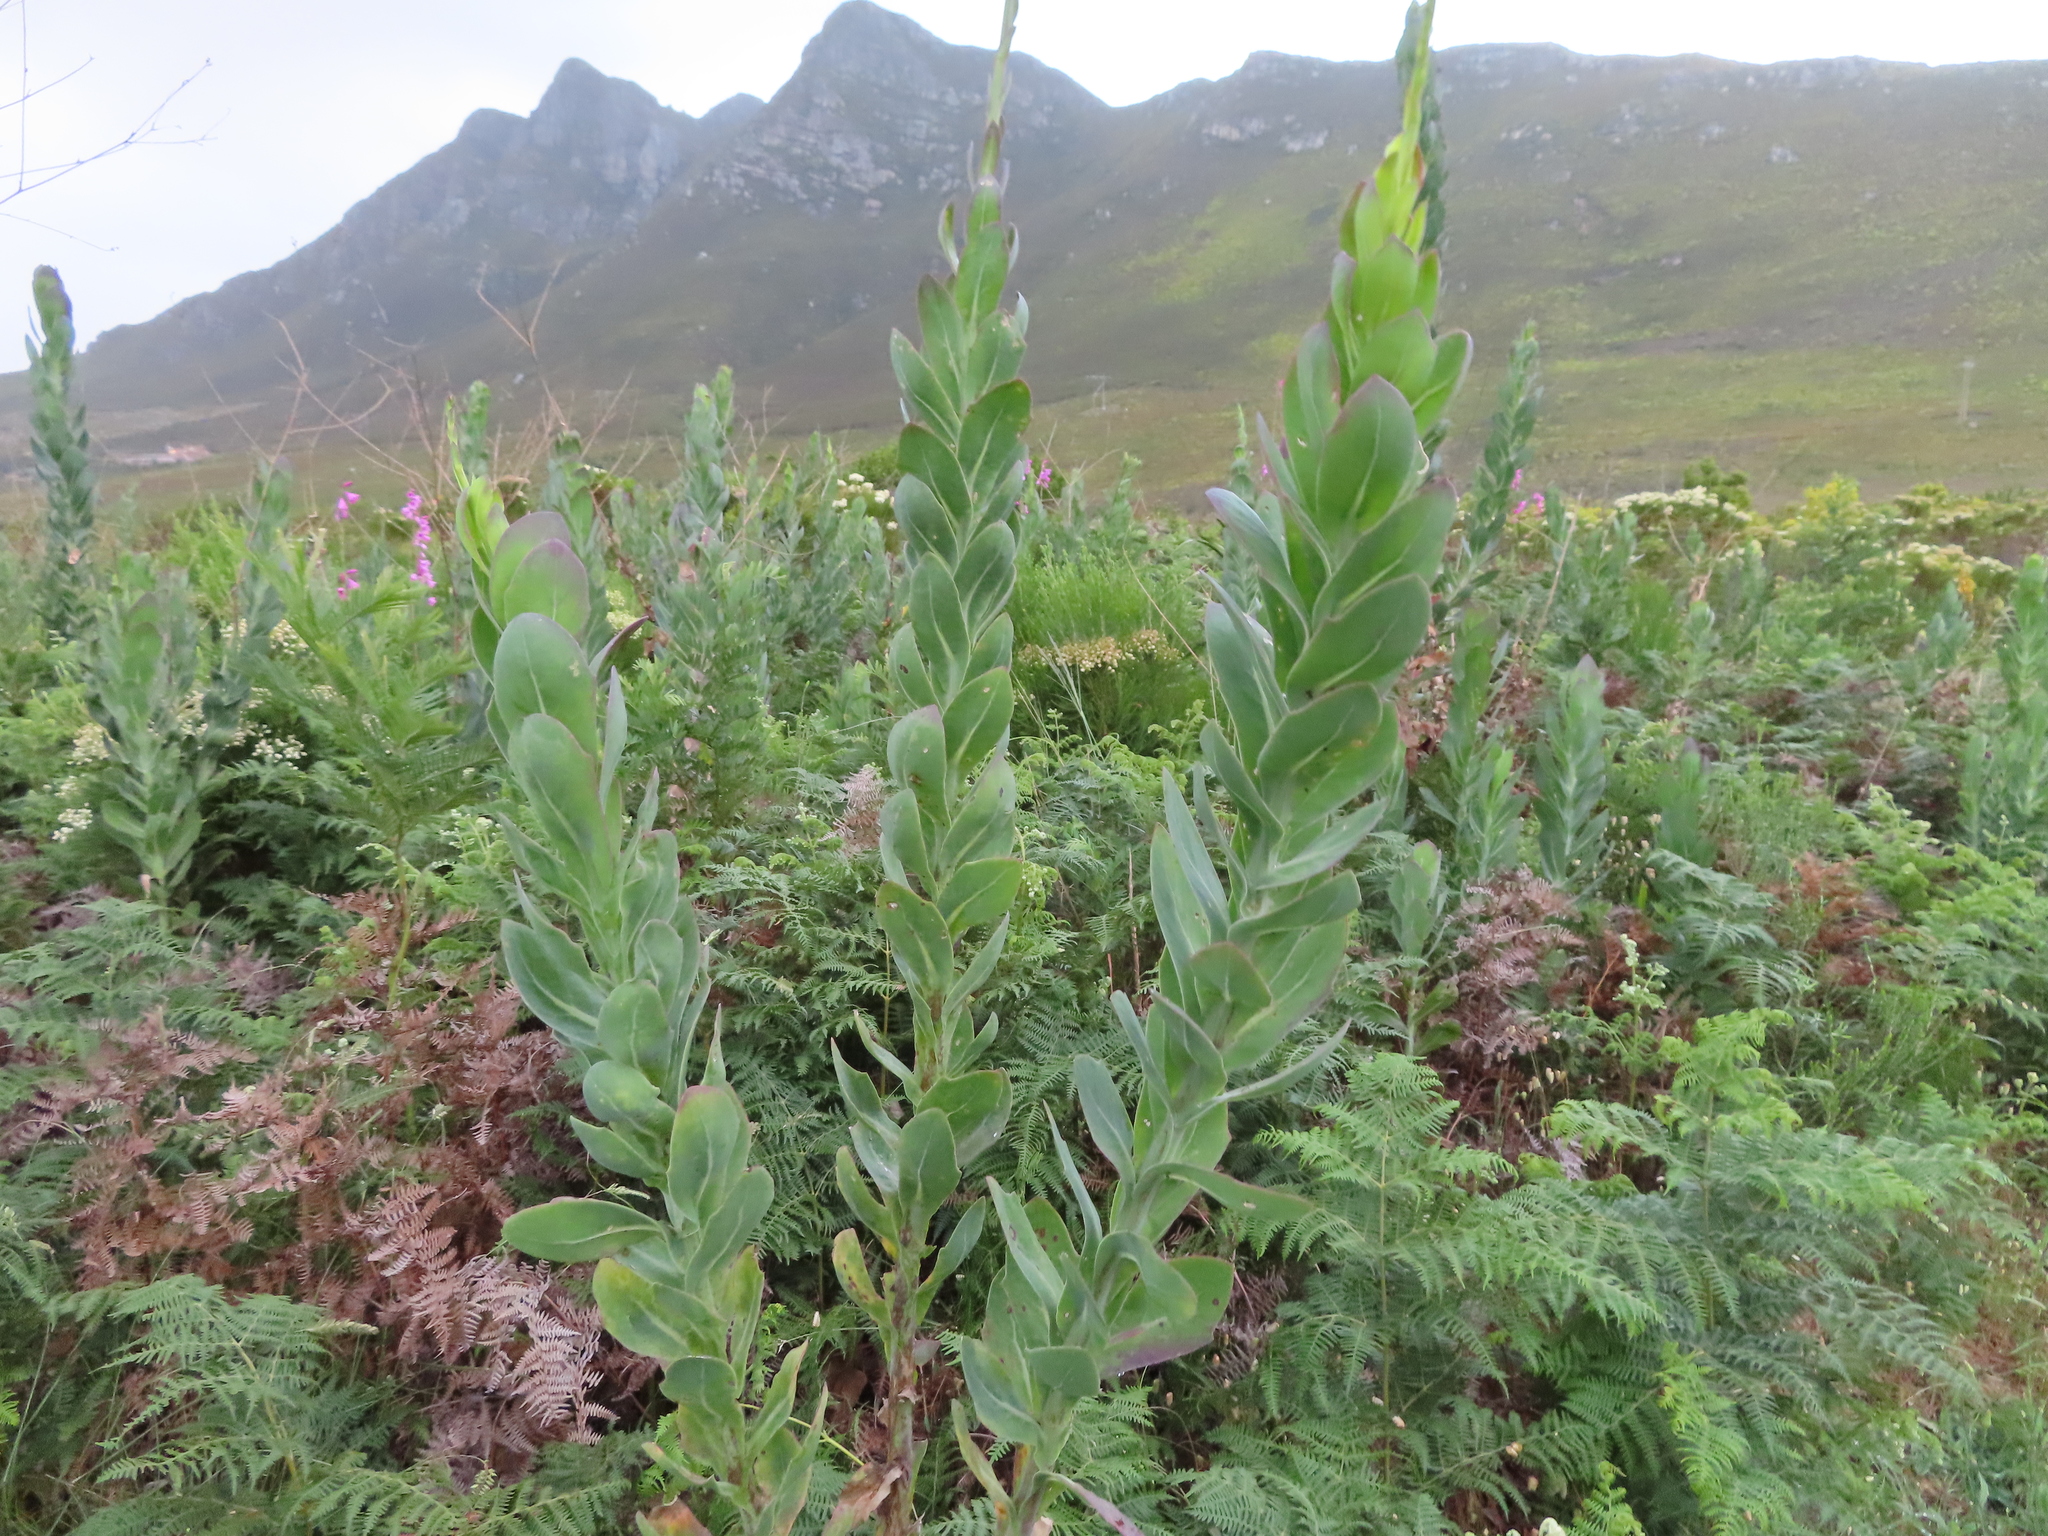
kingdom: Plantae
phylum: Tracheophyta
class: Magnoliopsida
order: Asterales
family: Asteraceae
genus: Othonna
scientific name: Othonna quinquedentata
